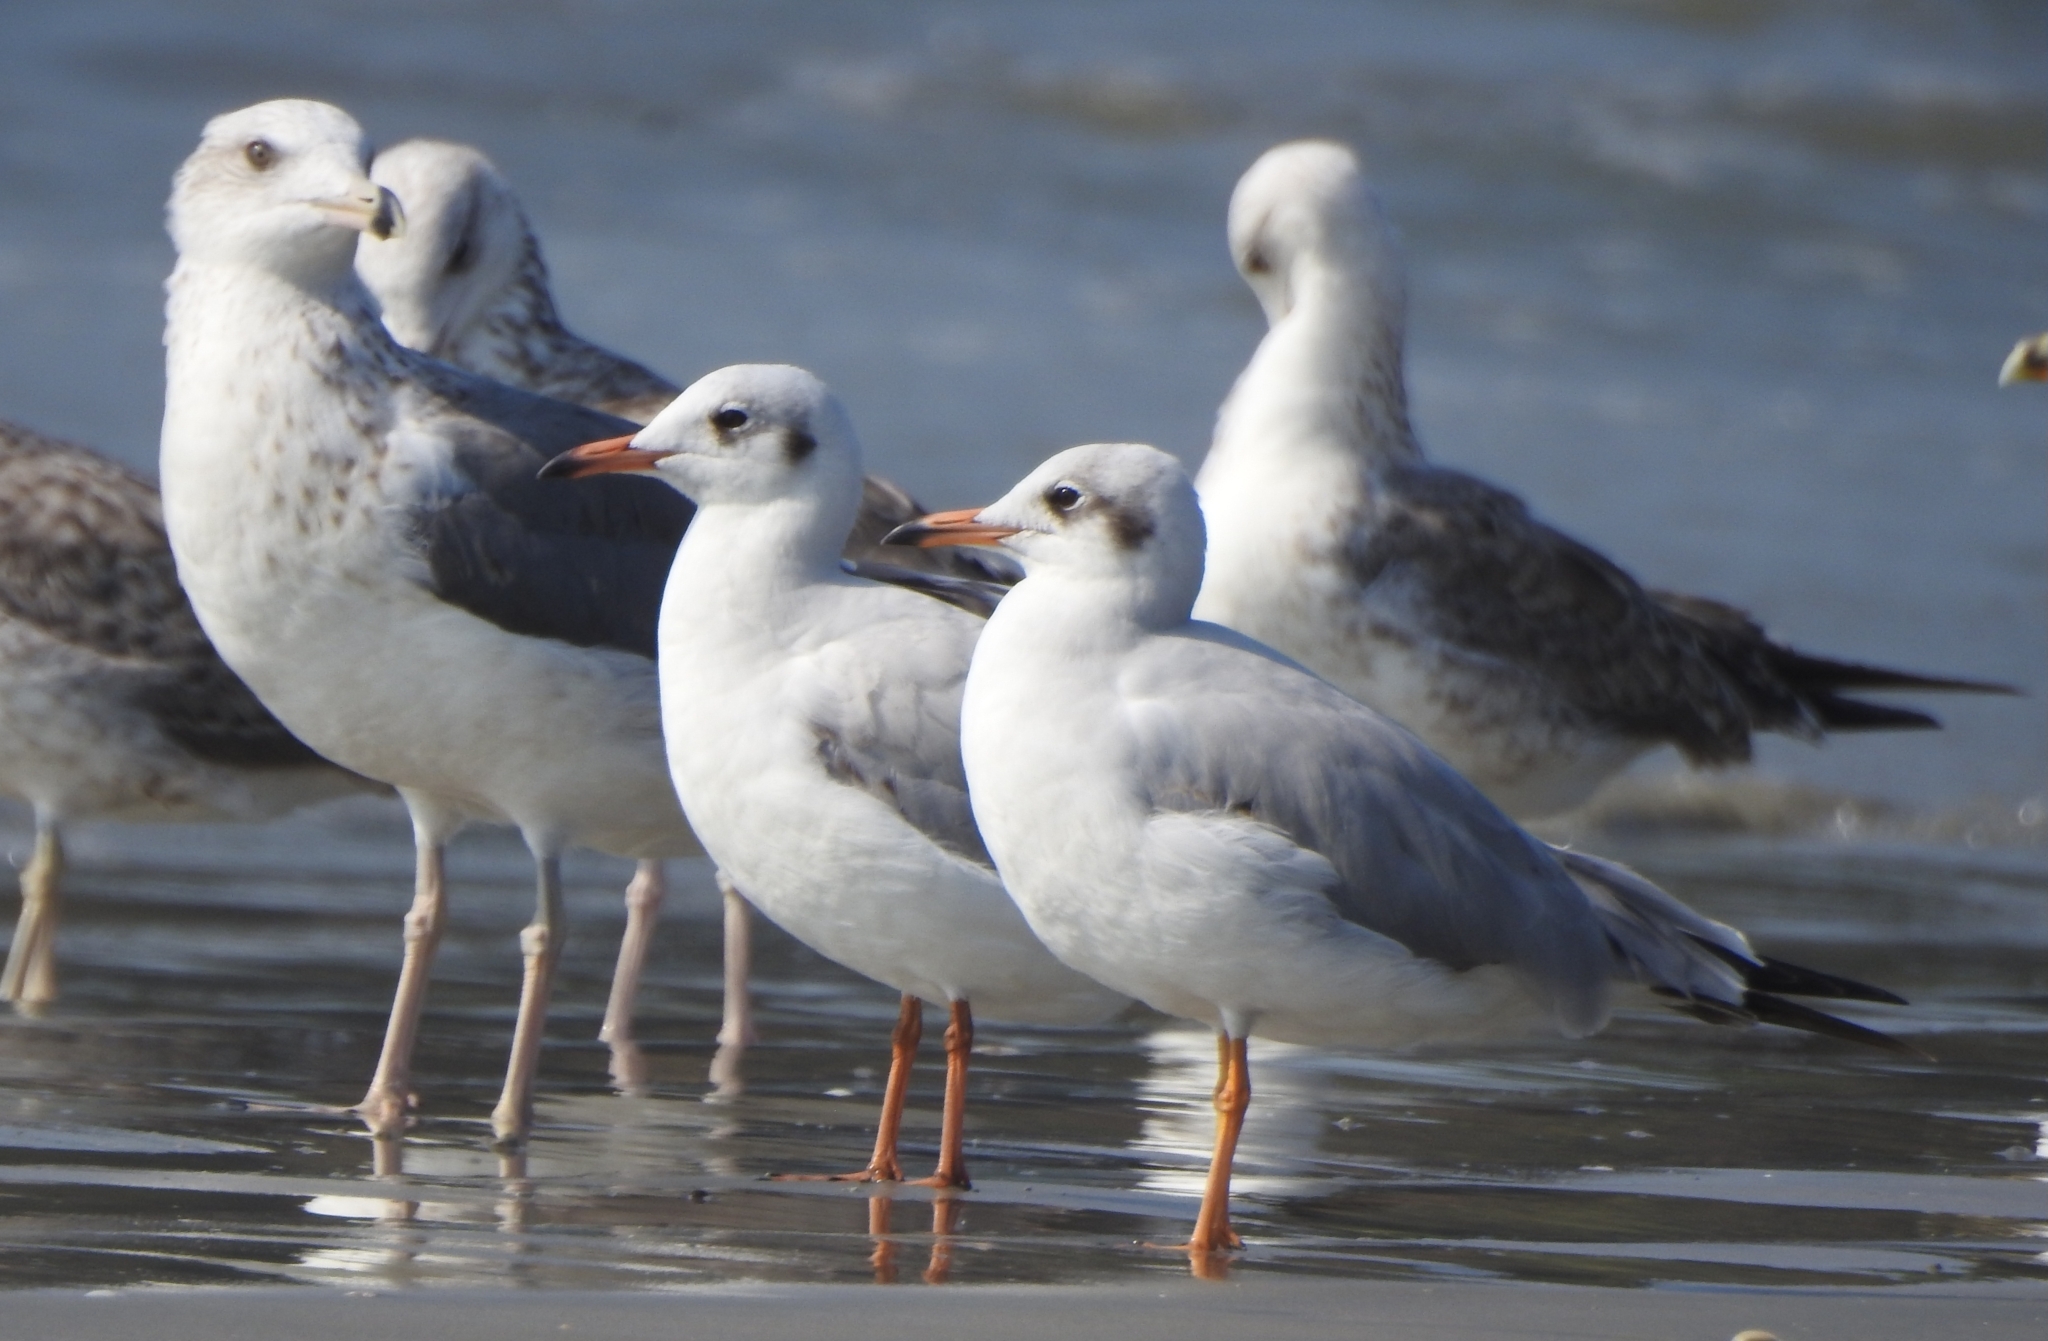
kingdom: Animalia
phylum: Chordata
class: Aves
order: Charadriiformes
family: Laridae
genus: Chroicocephalus
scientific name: Chroicocephalus brunnicephalus
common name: Brown-headed gull
